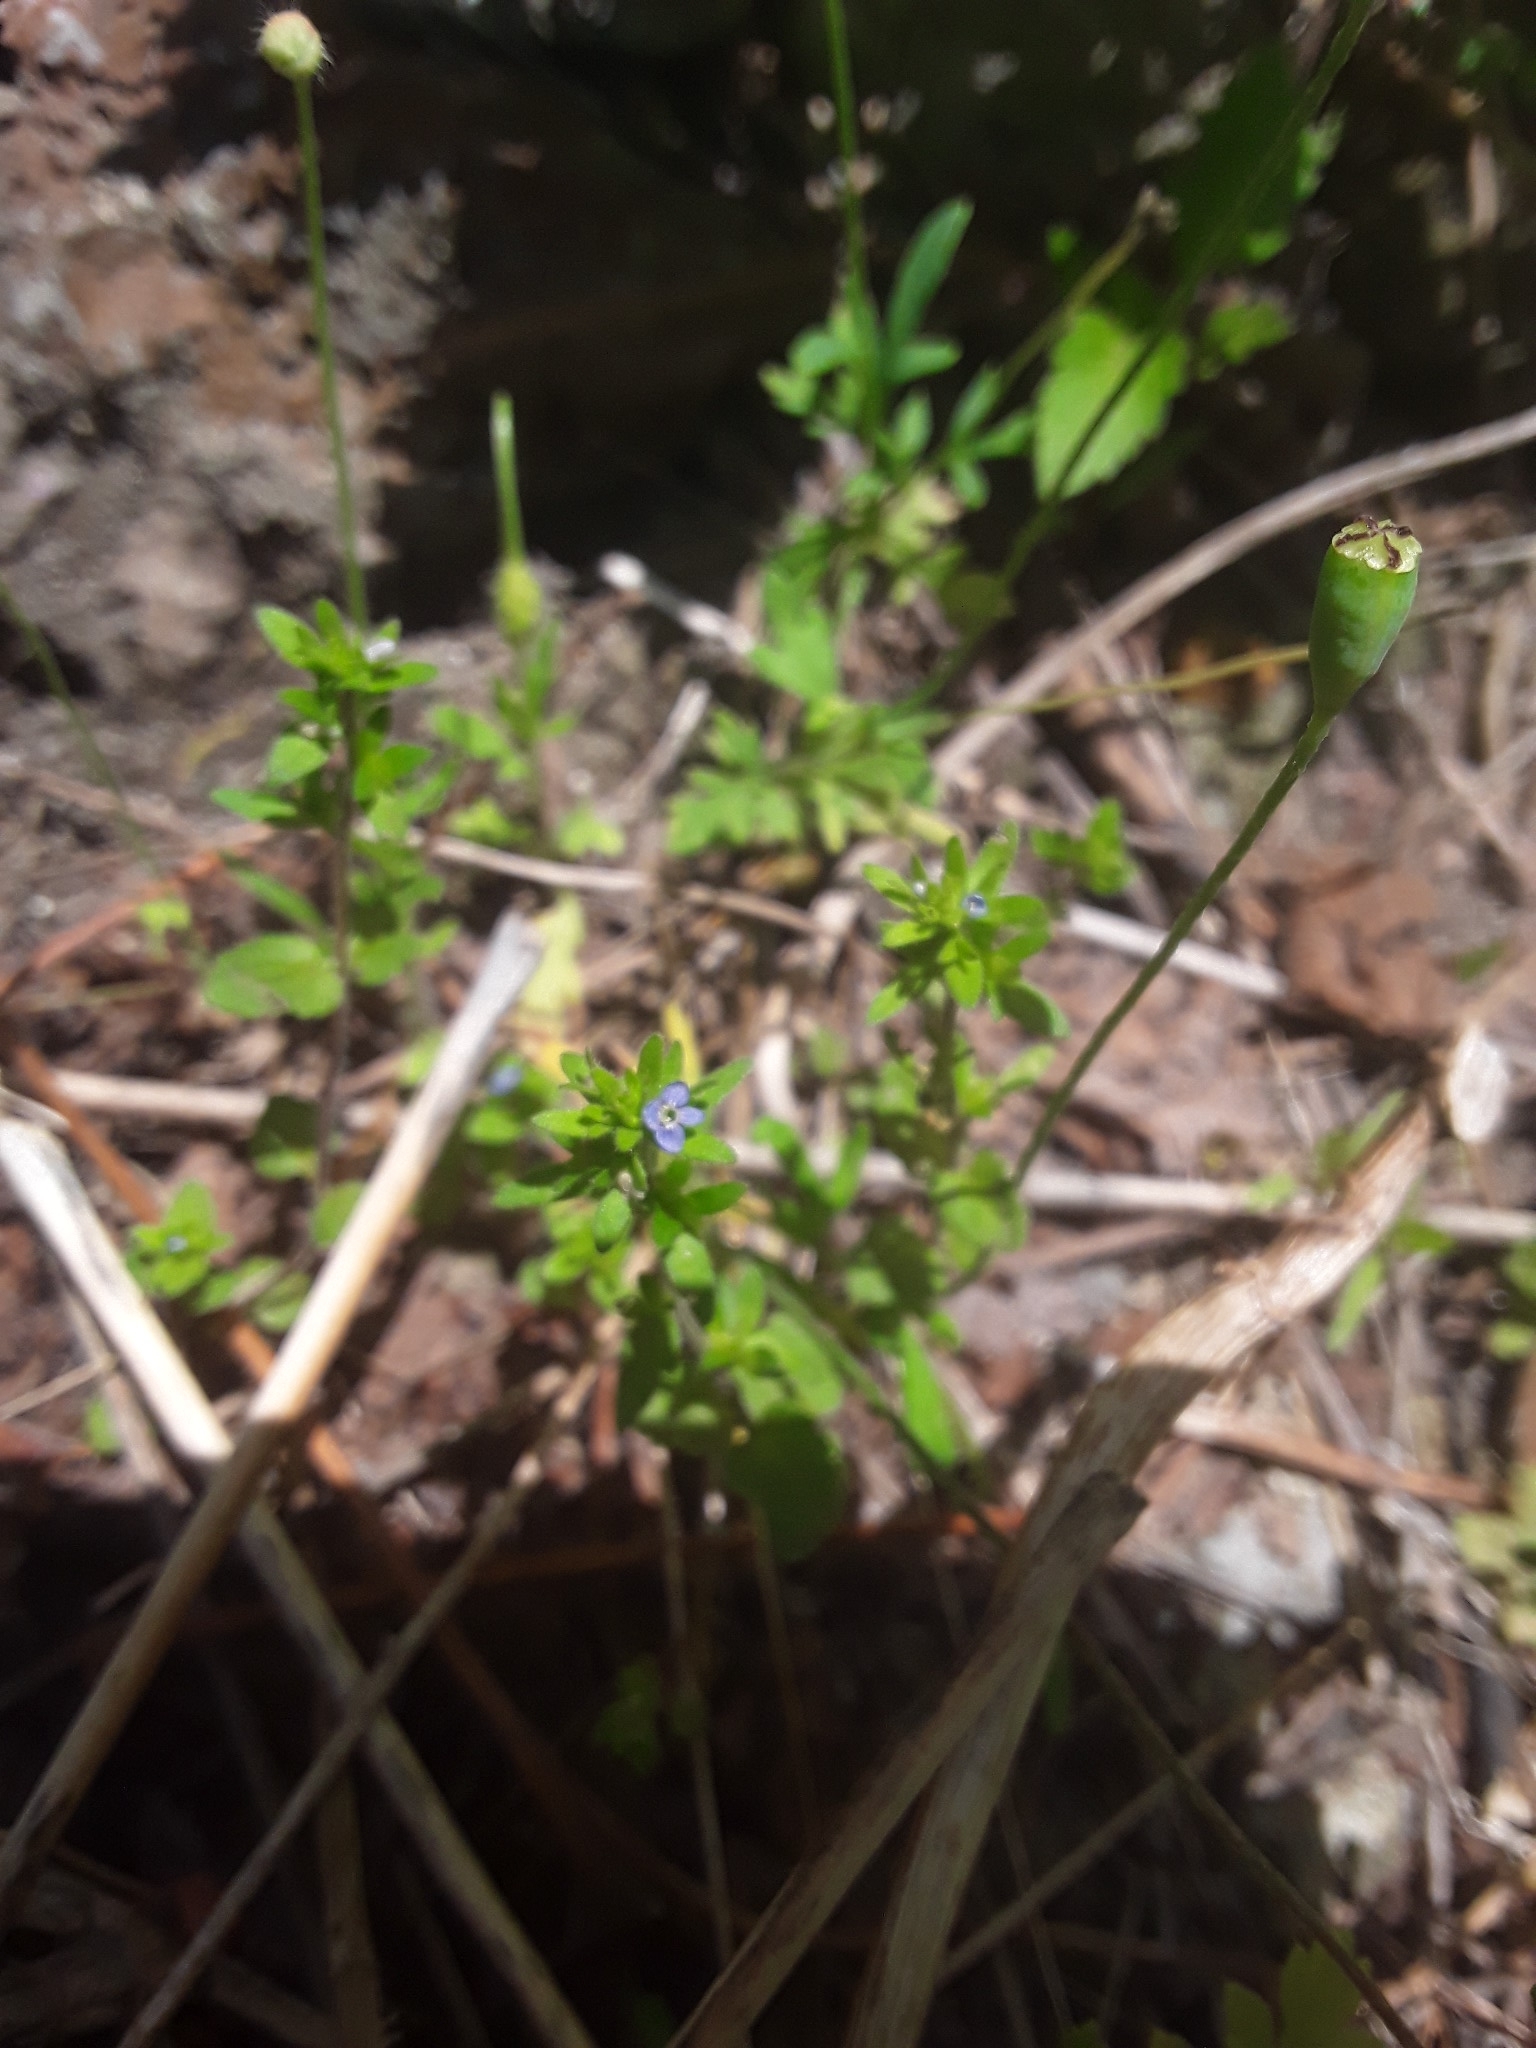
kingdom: Plantae
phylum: Tracheophyta
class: Magnoliopsida
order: Lamiales
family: Plantaginaceae
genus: Veronica
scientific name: Veronica arvensis
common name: Corn speedwell
